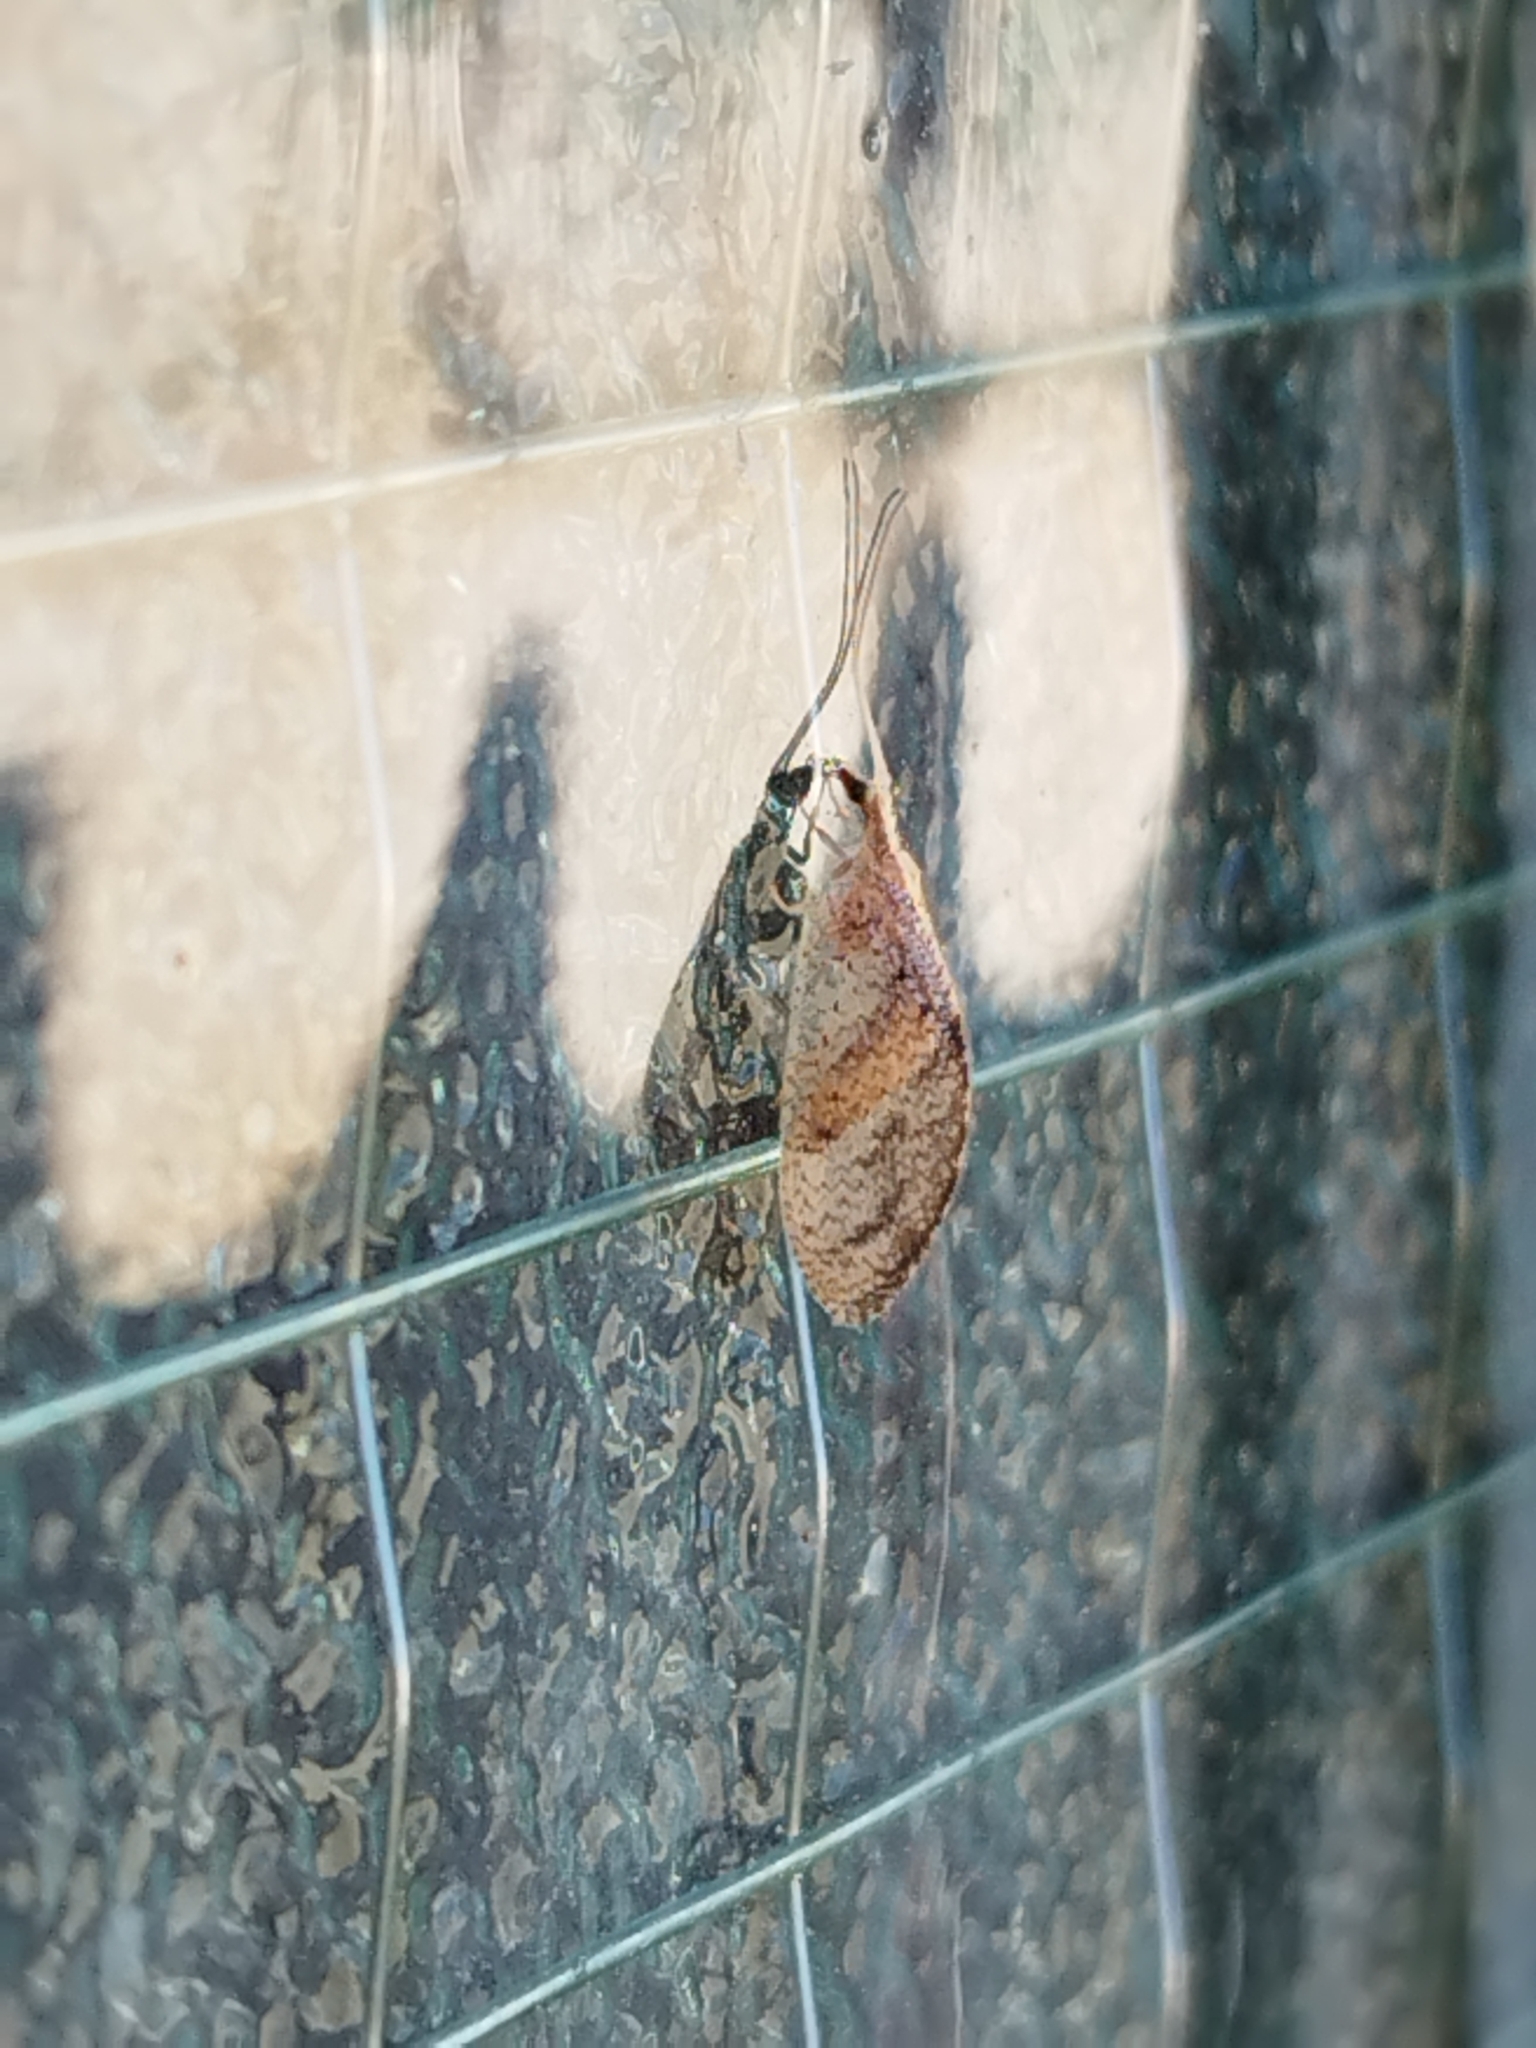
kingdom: Animalia
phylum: Arthropoda
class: Insecta
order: Neuroptera
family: Hemerobiidae
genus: Hemerobius
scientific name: Hemerobius bolivari
